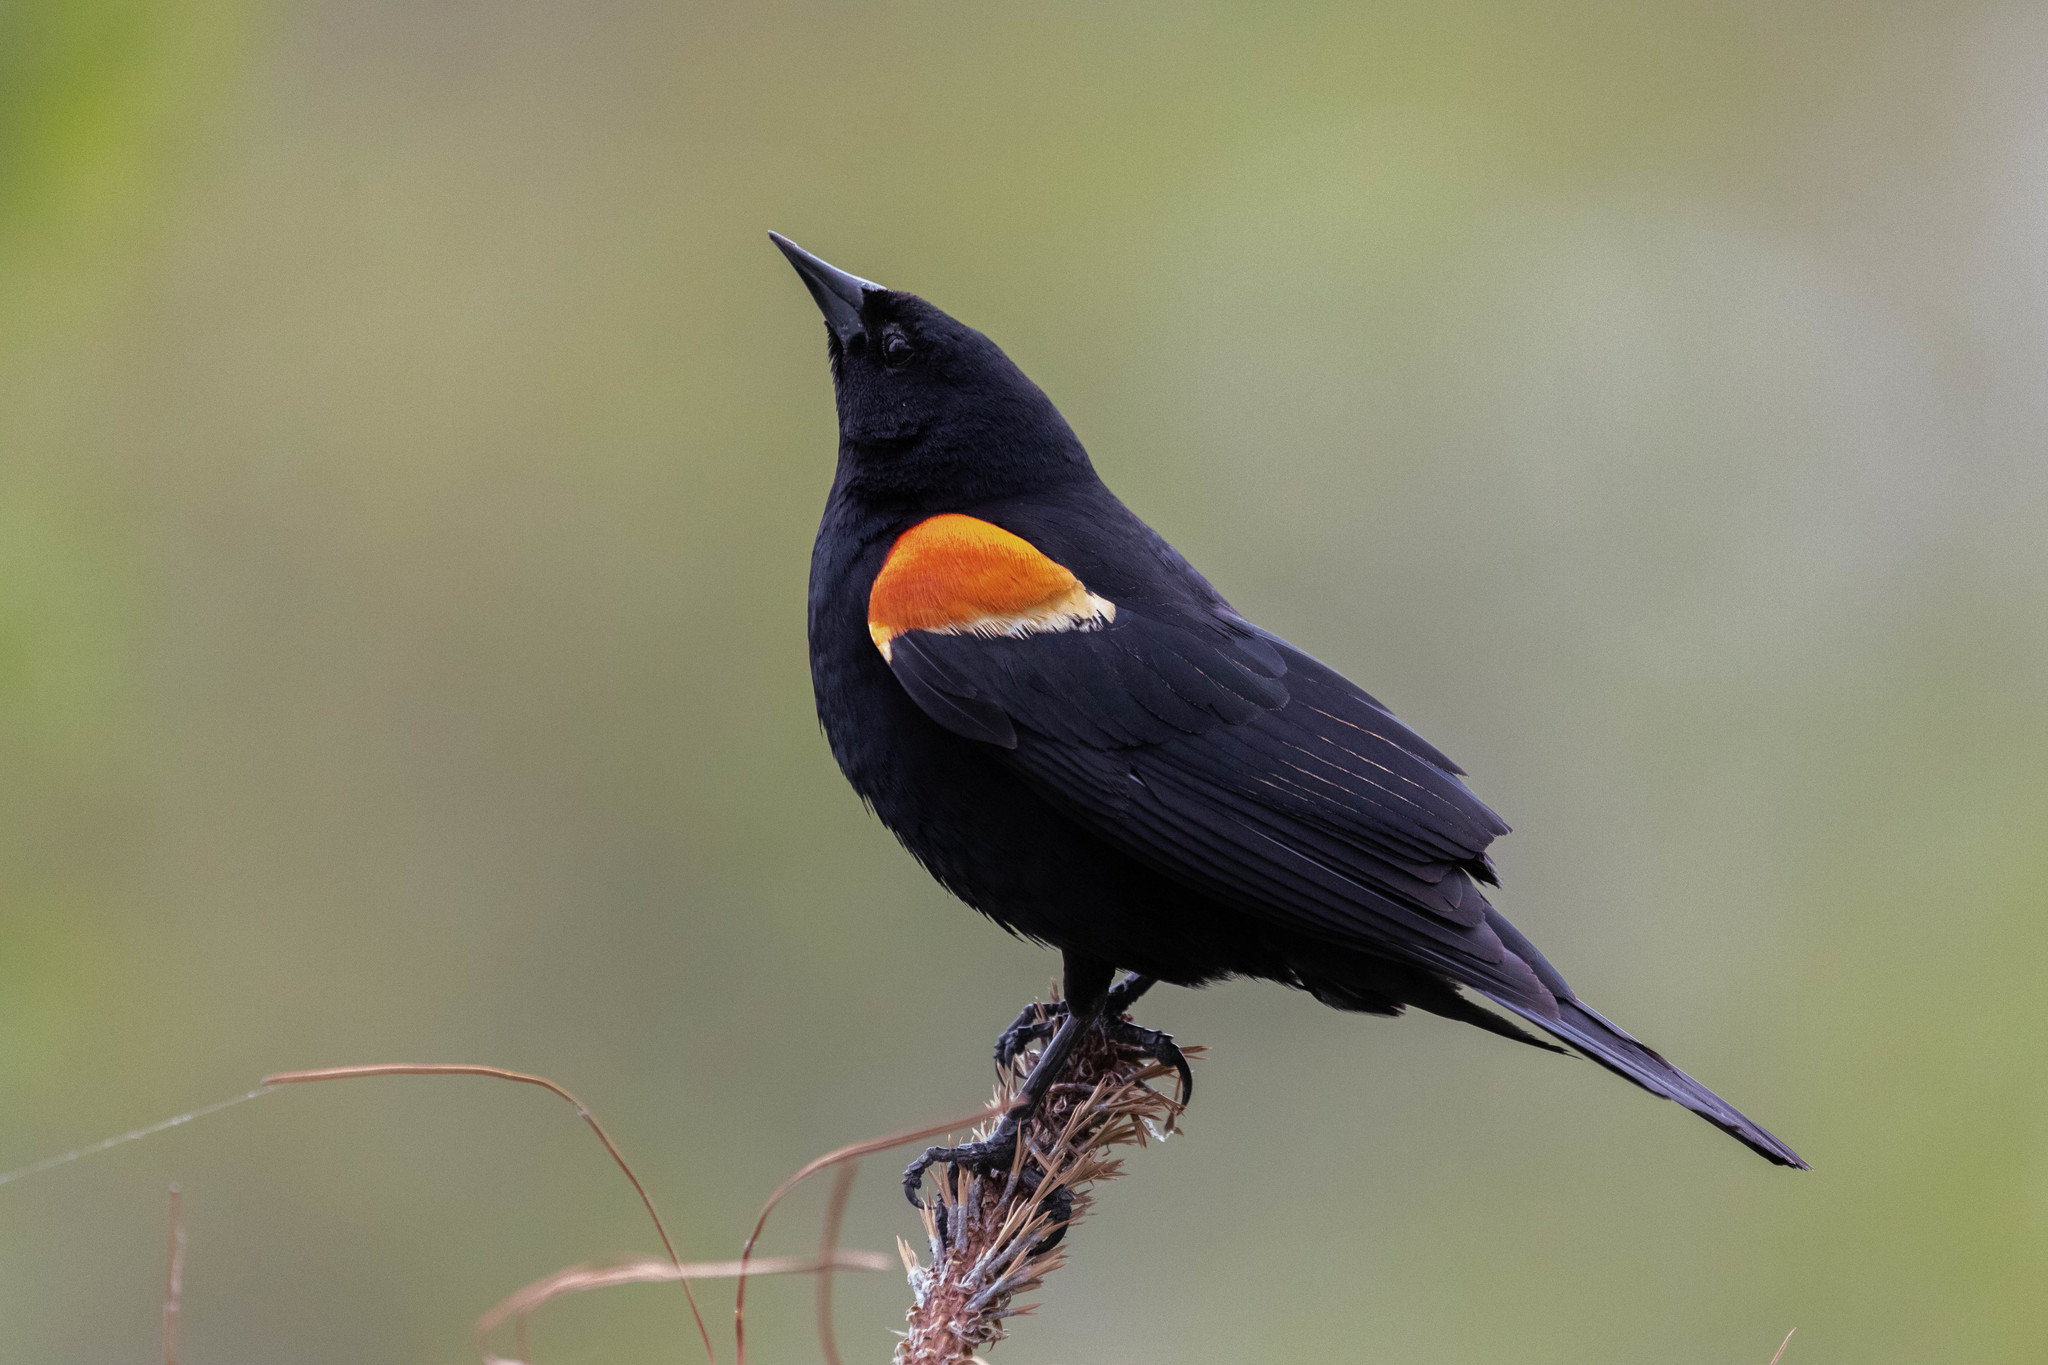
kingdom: Animalia
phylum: Chordata
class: Aves
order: Passeriformes
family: Icteridae
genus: Agelaius
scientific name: Agelaius phoeniceus
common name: Red-winged blackbird
